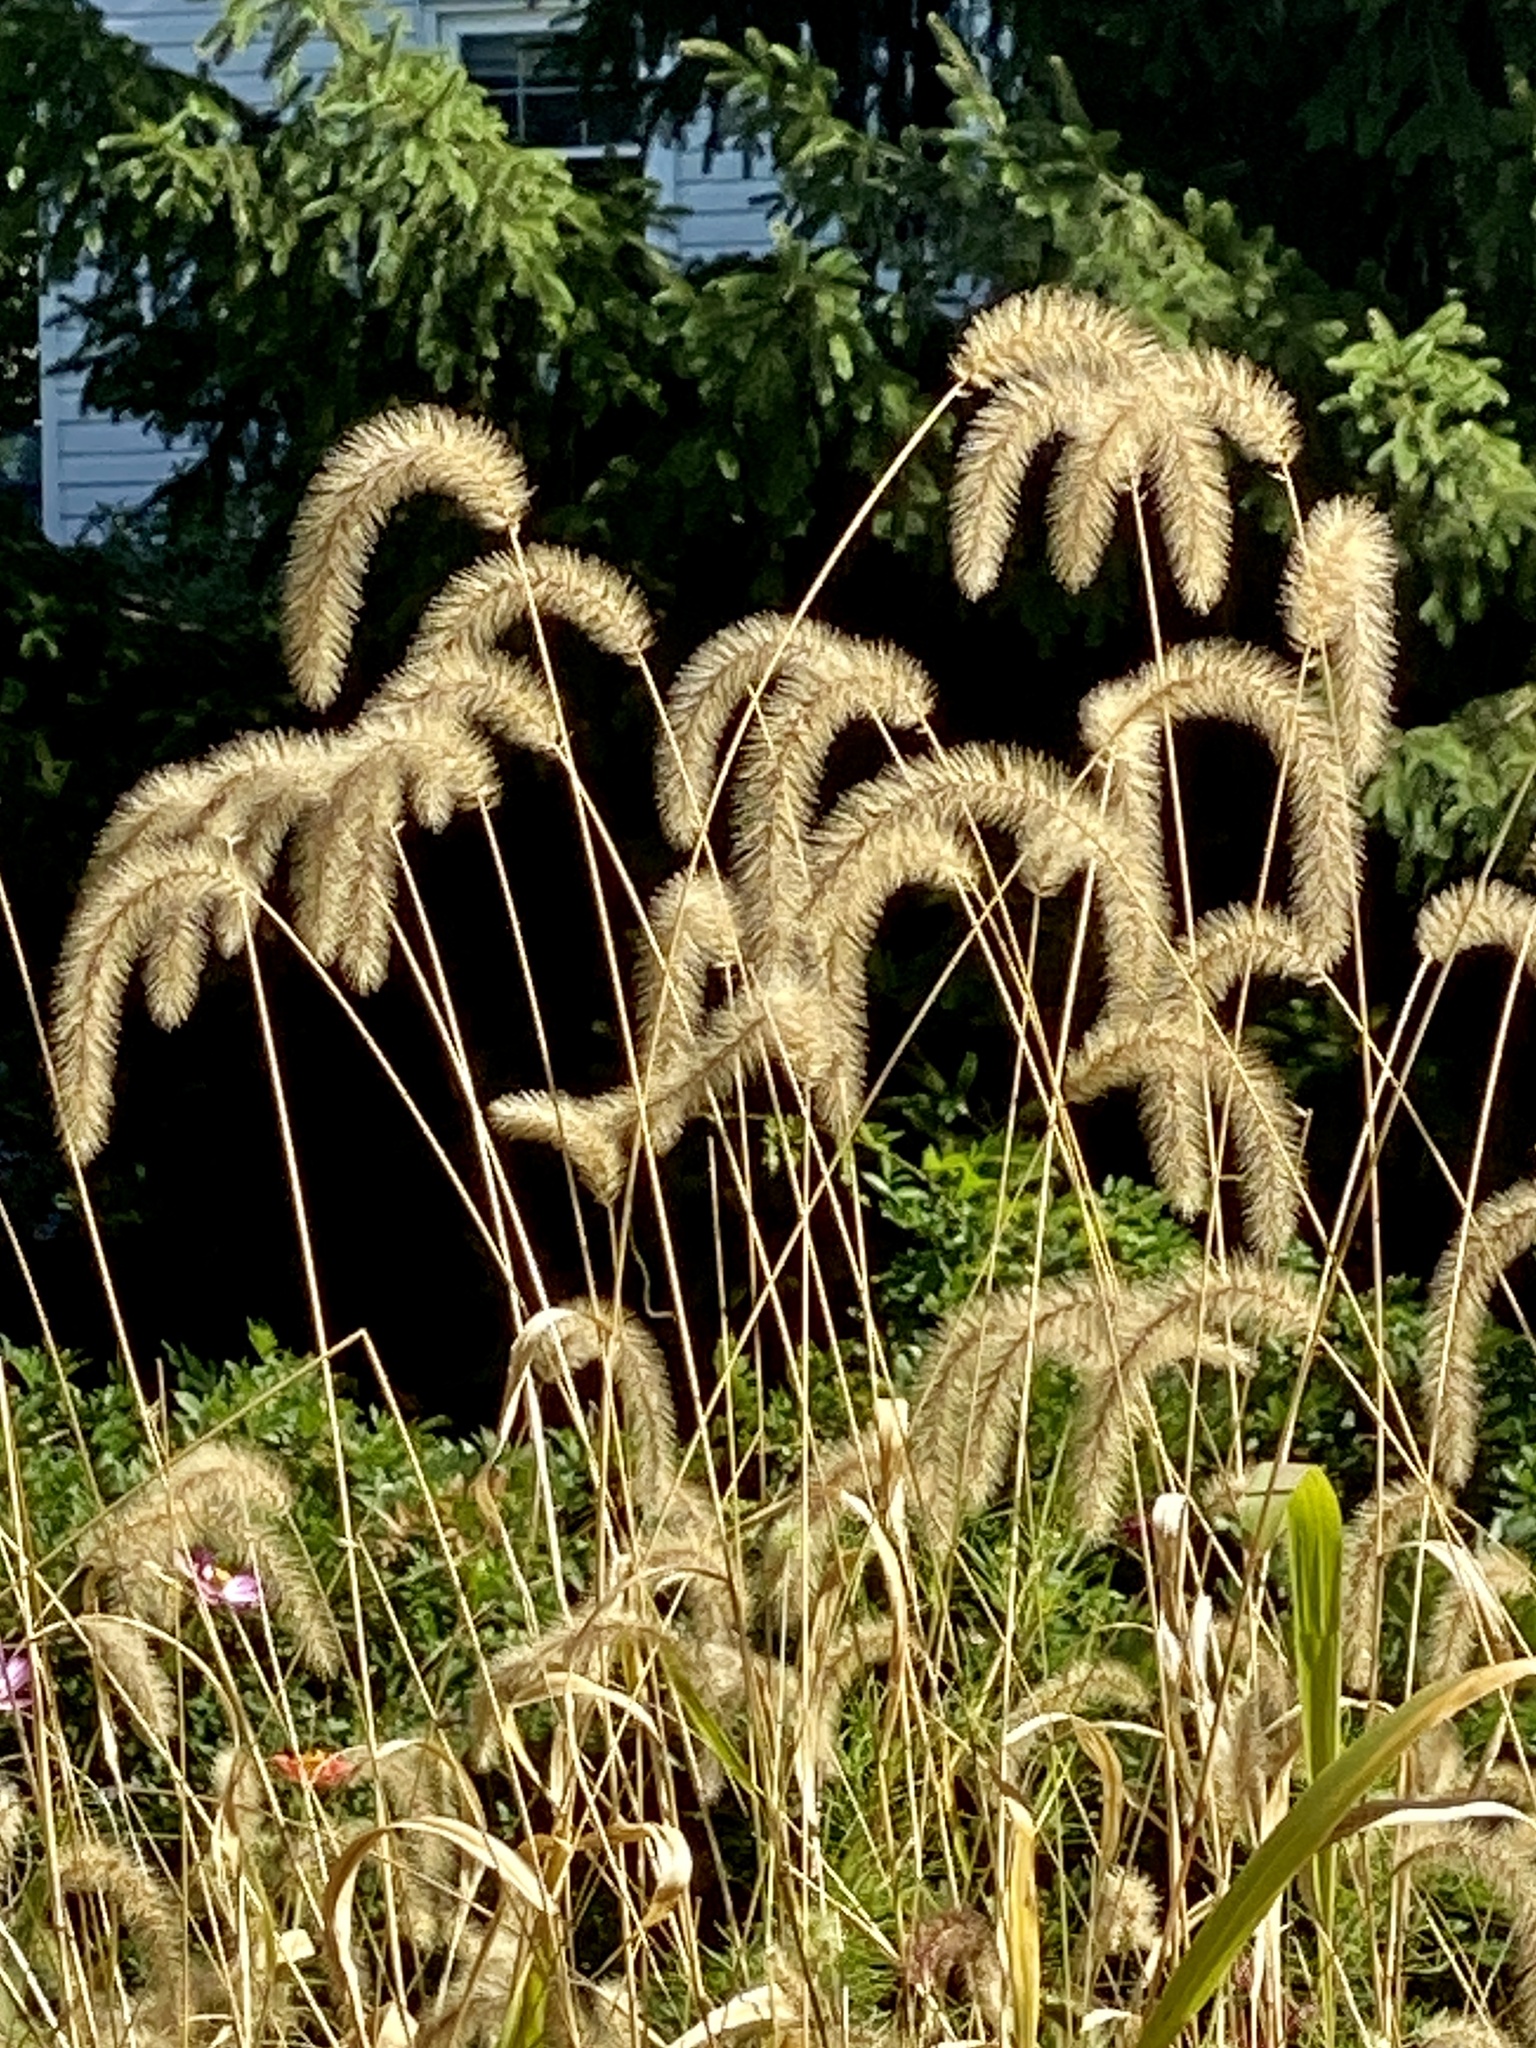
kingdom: Plantae
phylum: Tracheophyta
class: Liliopsida
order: Poales
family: Poaceae
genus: Setaria
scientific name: Setaria faberi
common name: Nodding bristle-grass
